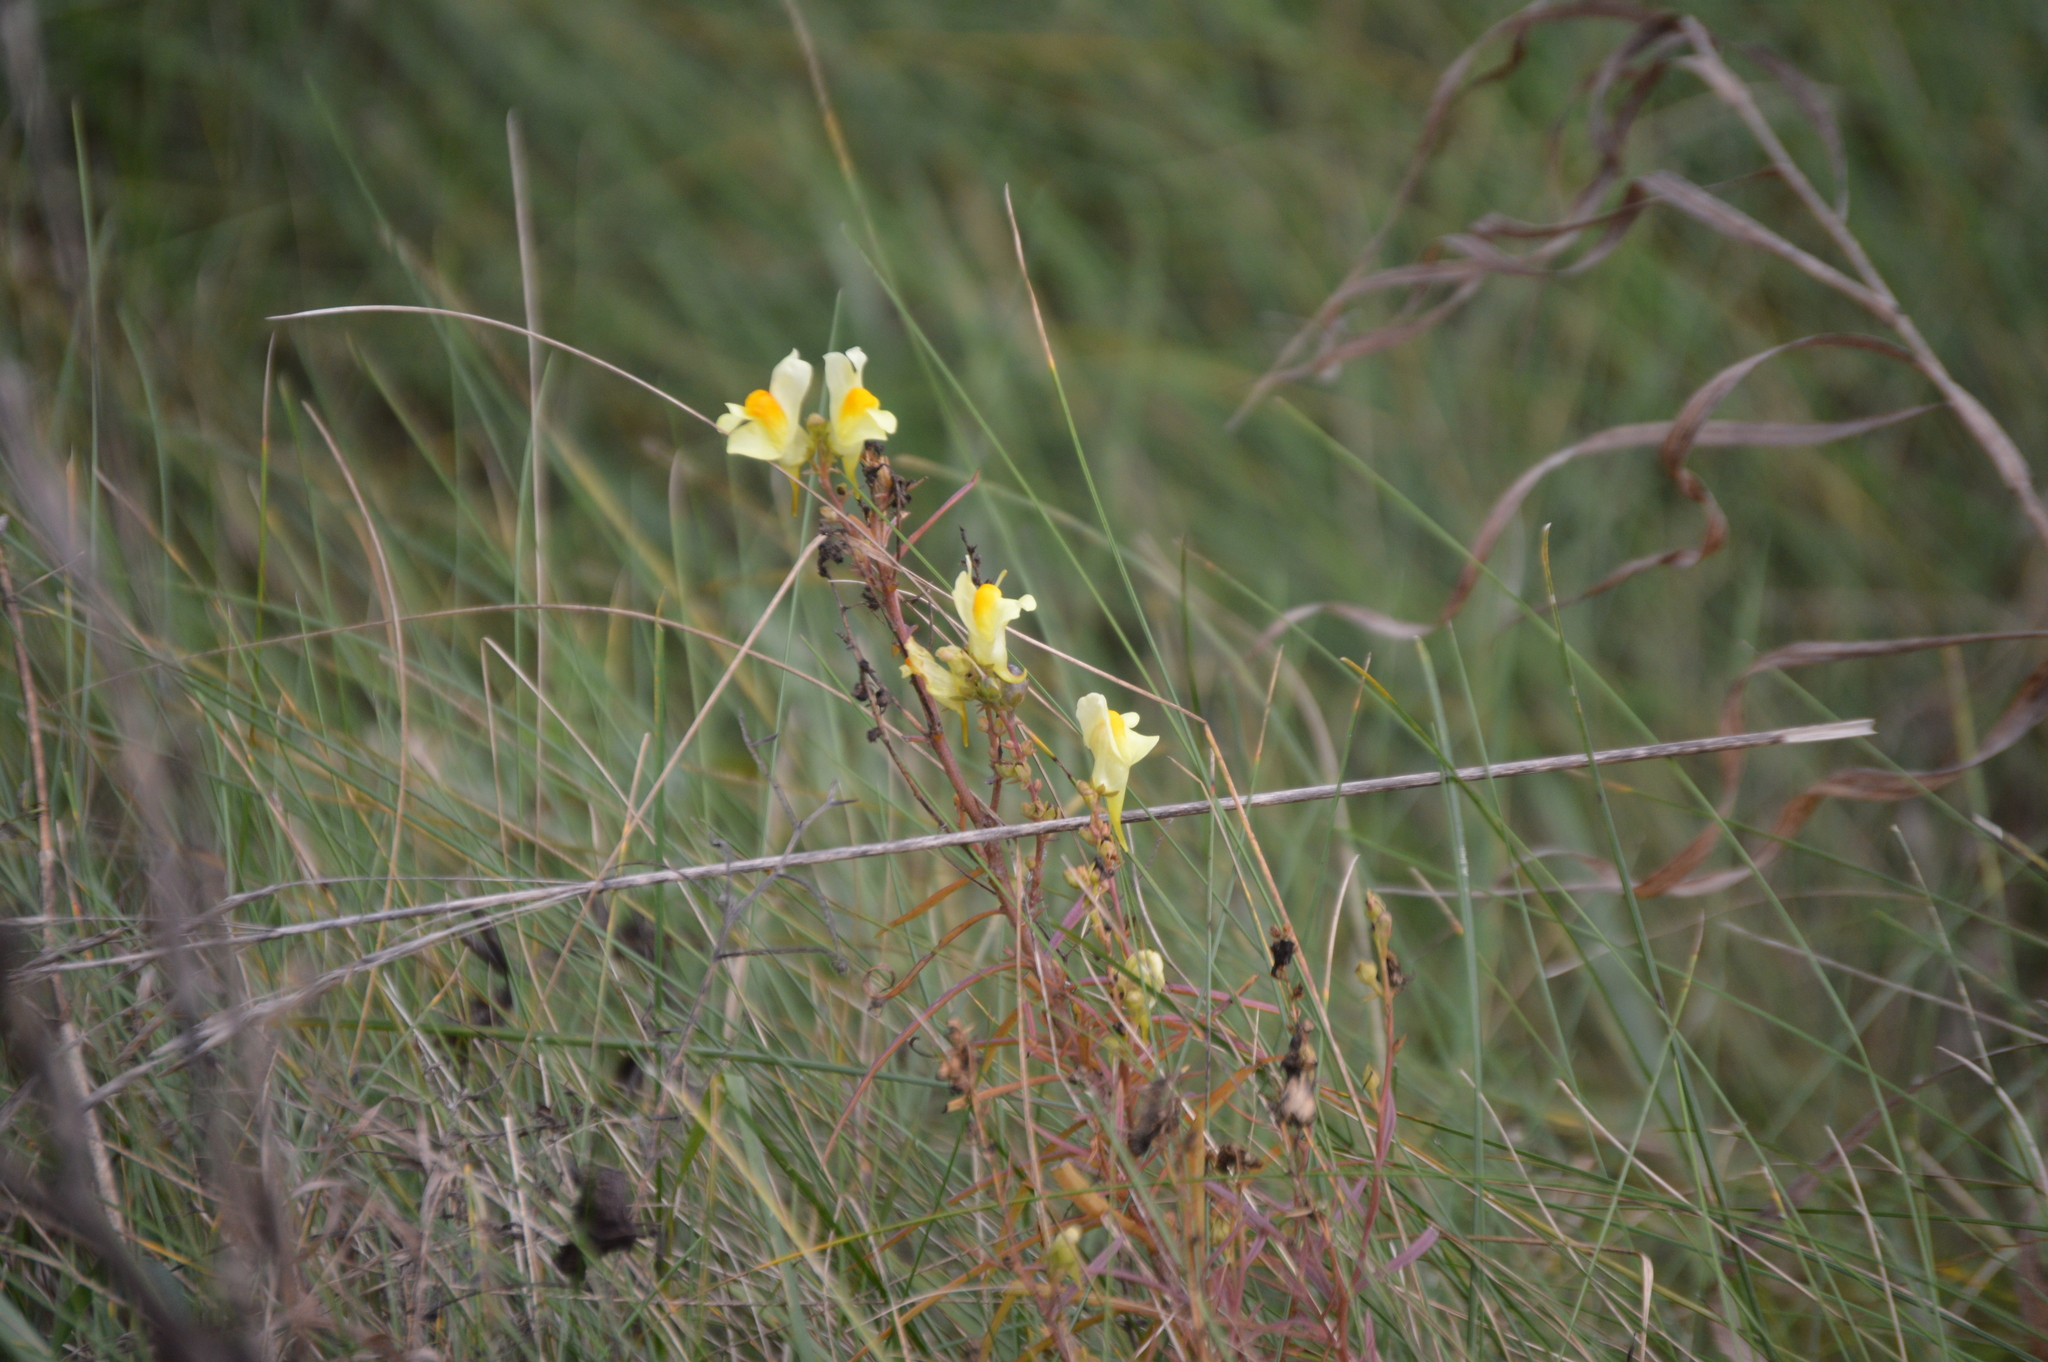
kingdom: Plantae
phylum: Tracheophyta
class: Magnoliopsida
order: Lamiales
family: Plantaginaceae
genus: Linaria
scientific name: Linaria vulgaris
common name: Butter and eggs
